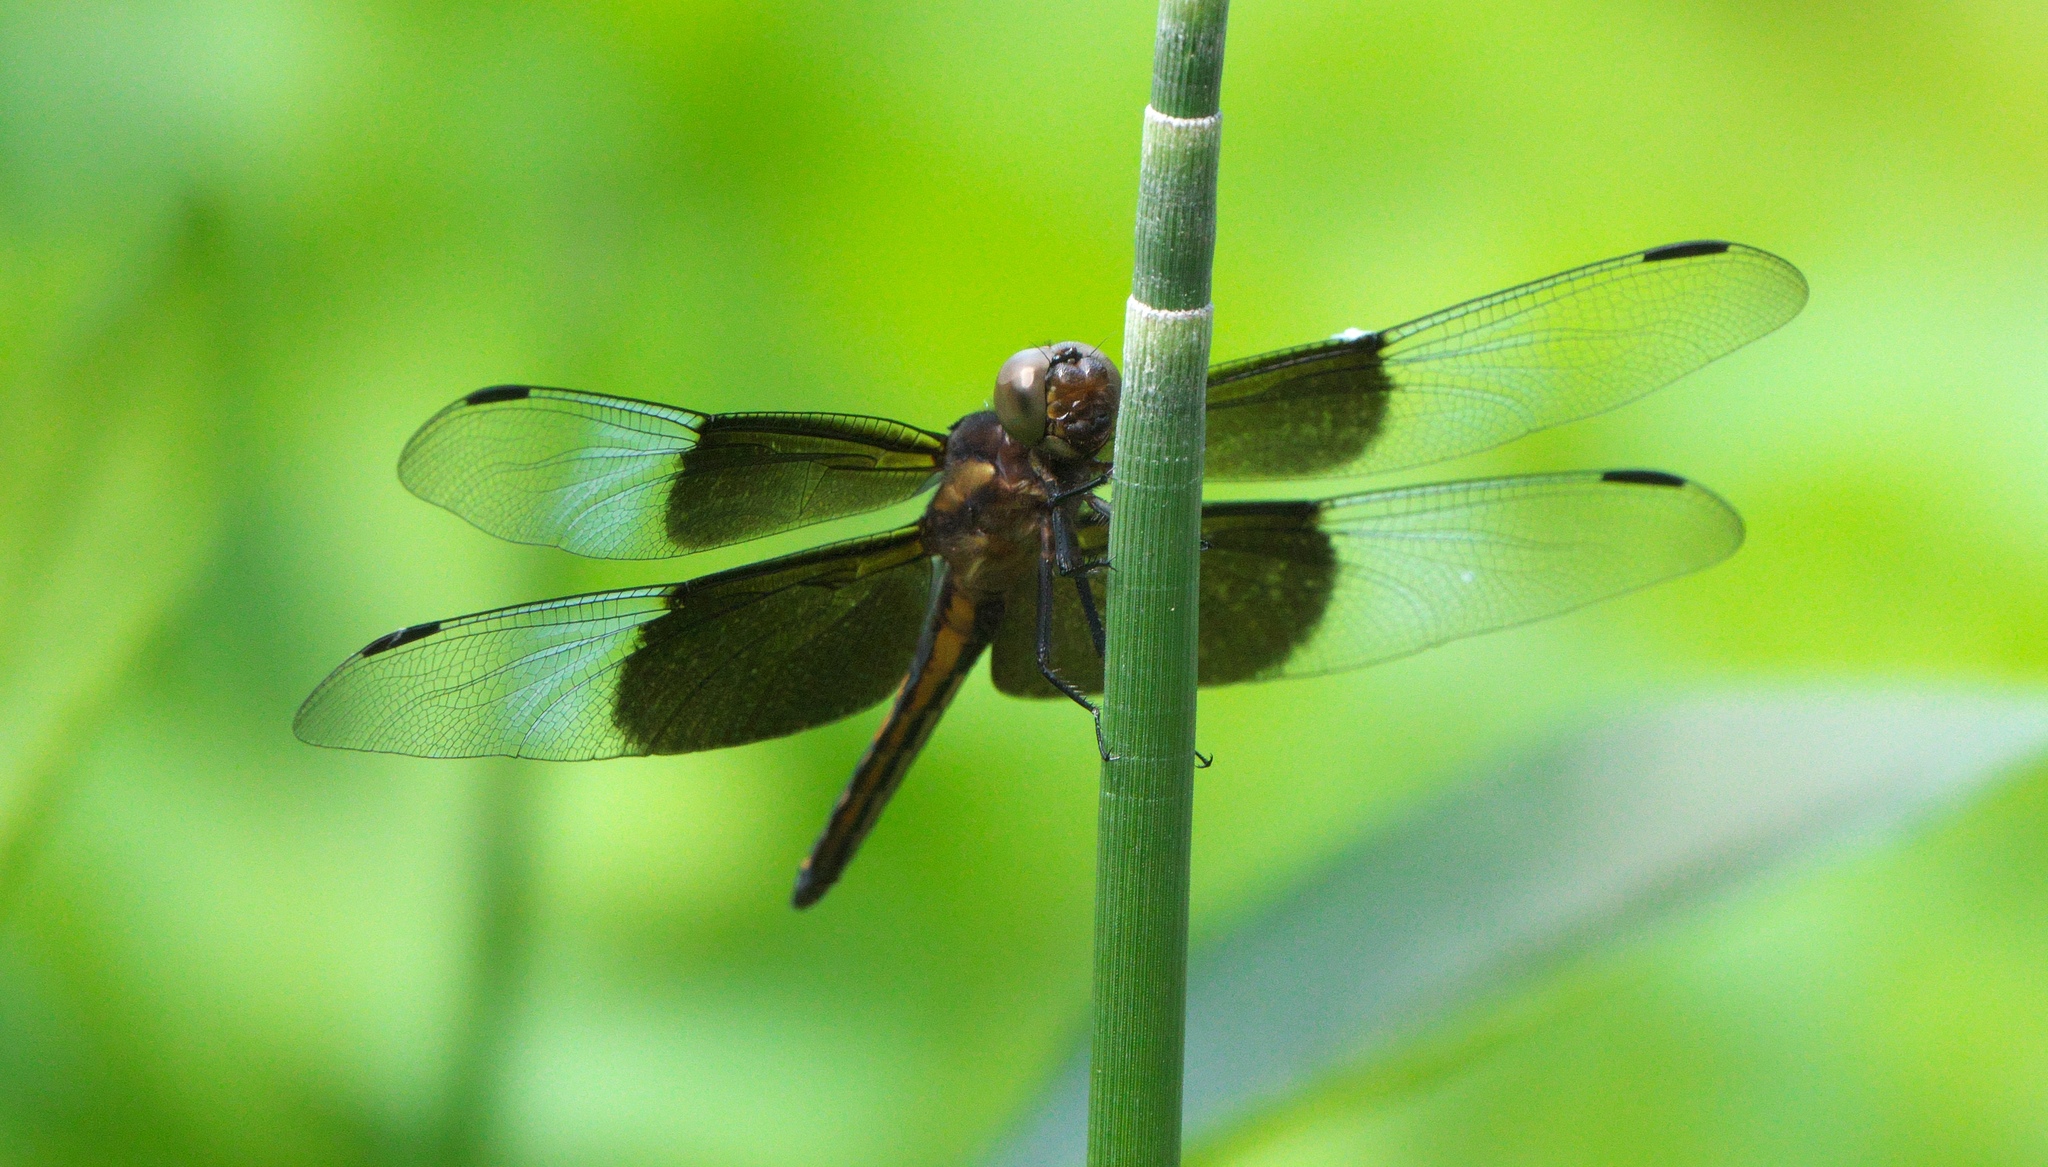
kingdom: Animalia
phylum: Arthropoda
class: Insecta
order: Odonata
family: Libellulidae
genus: Libellula
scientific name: Libellula luctuosa
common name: Widow skimmer
